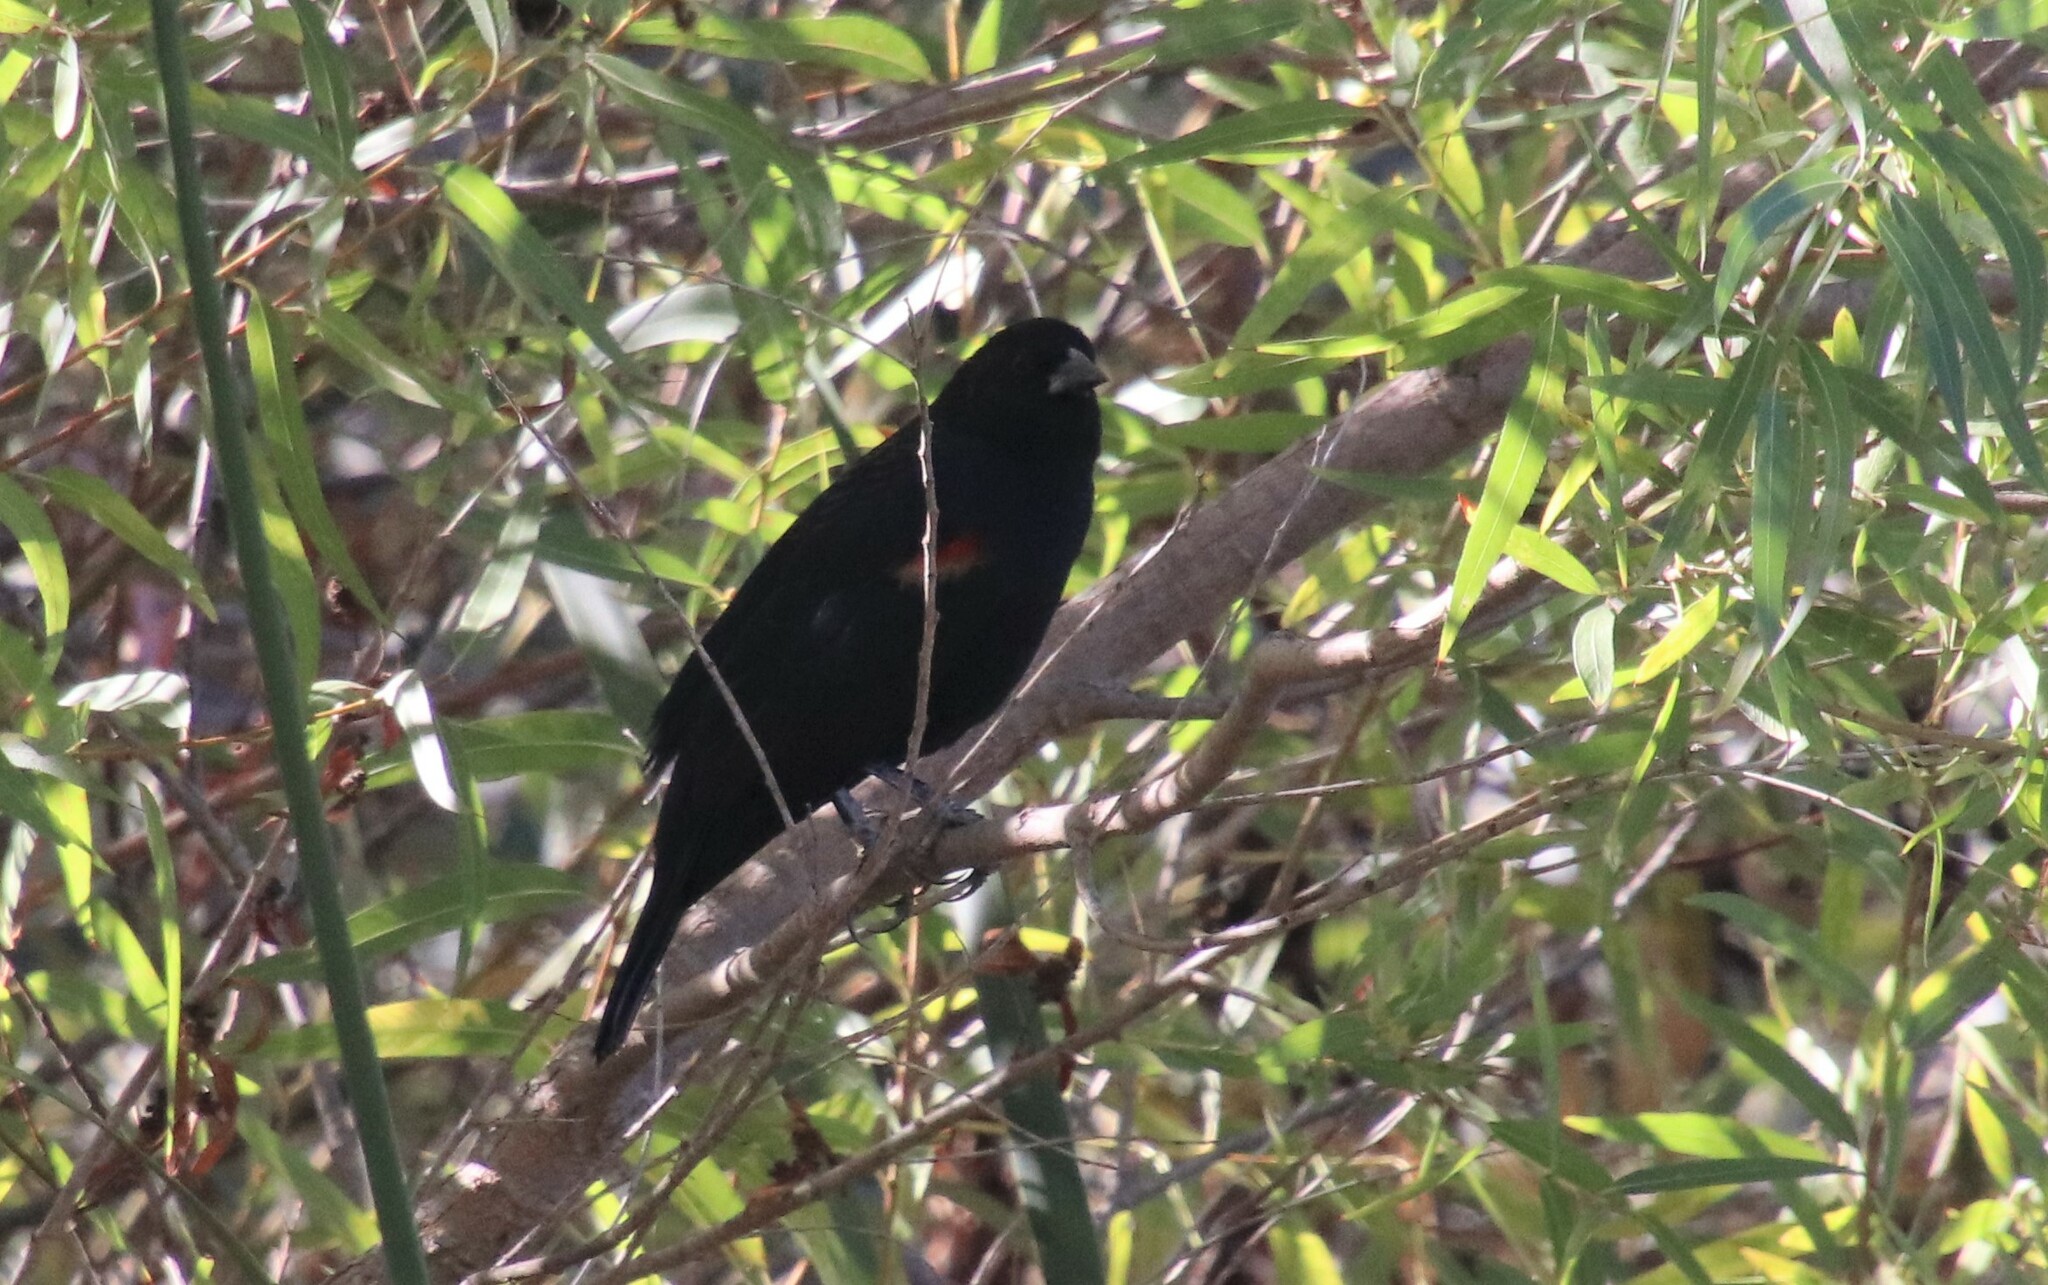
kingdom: Animalia
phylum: Chordata
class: Aves
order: Passeriformes
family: Icteridae
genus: Agelaius
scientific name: Agelaius phoeniceus
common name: Red-winged blackbird
